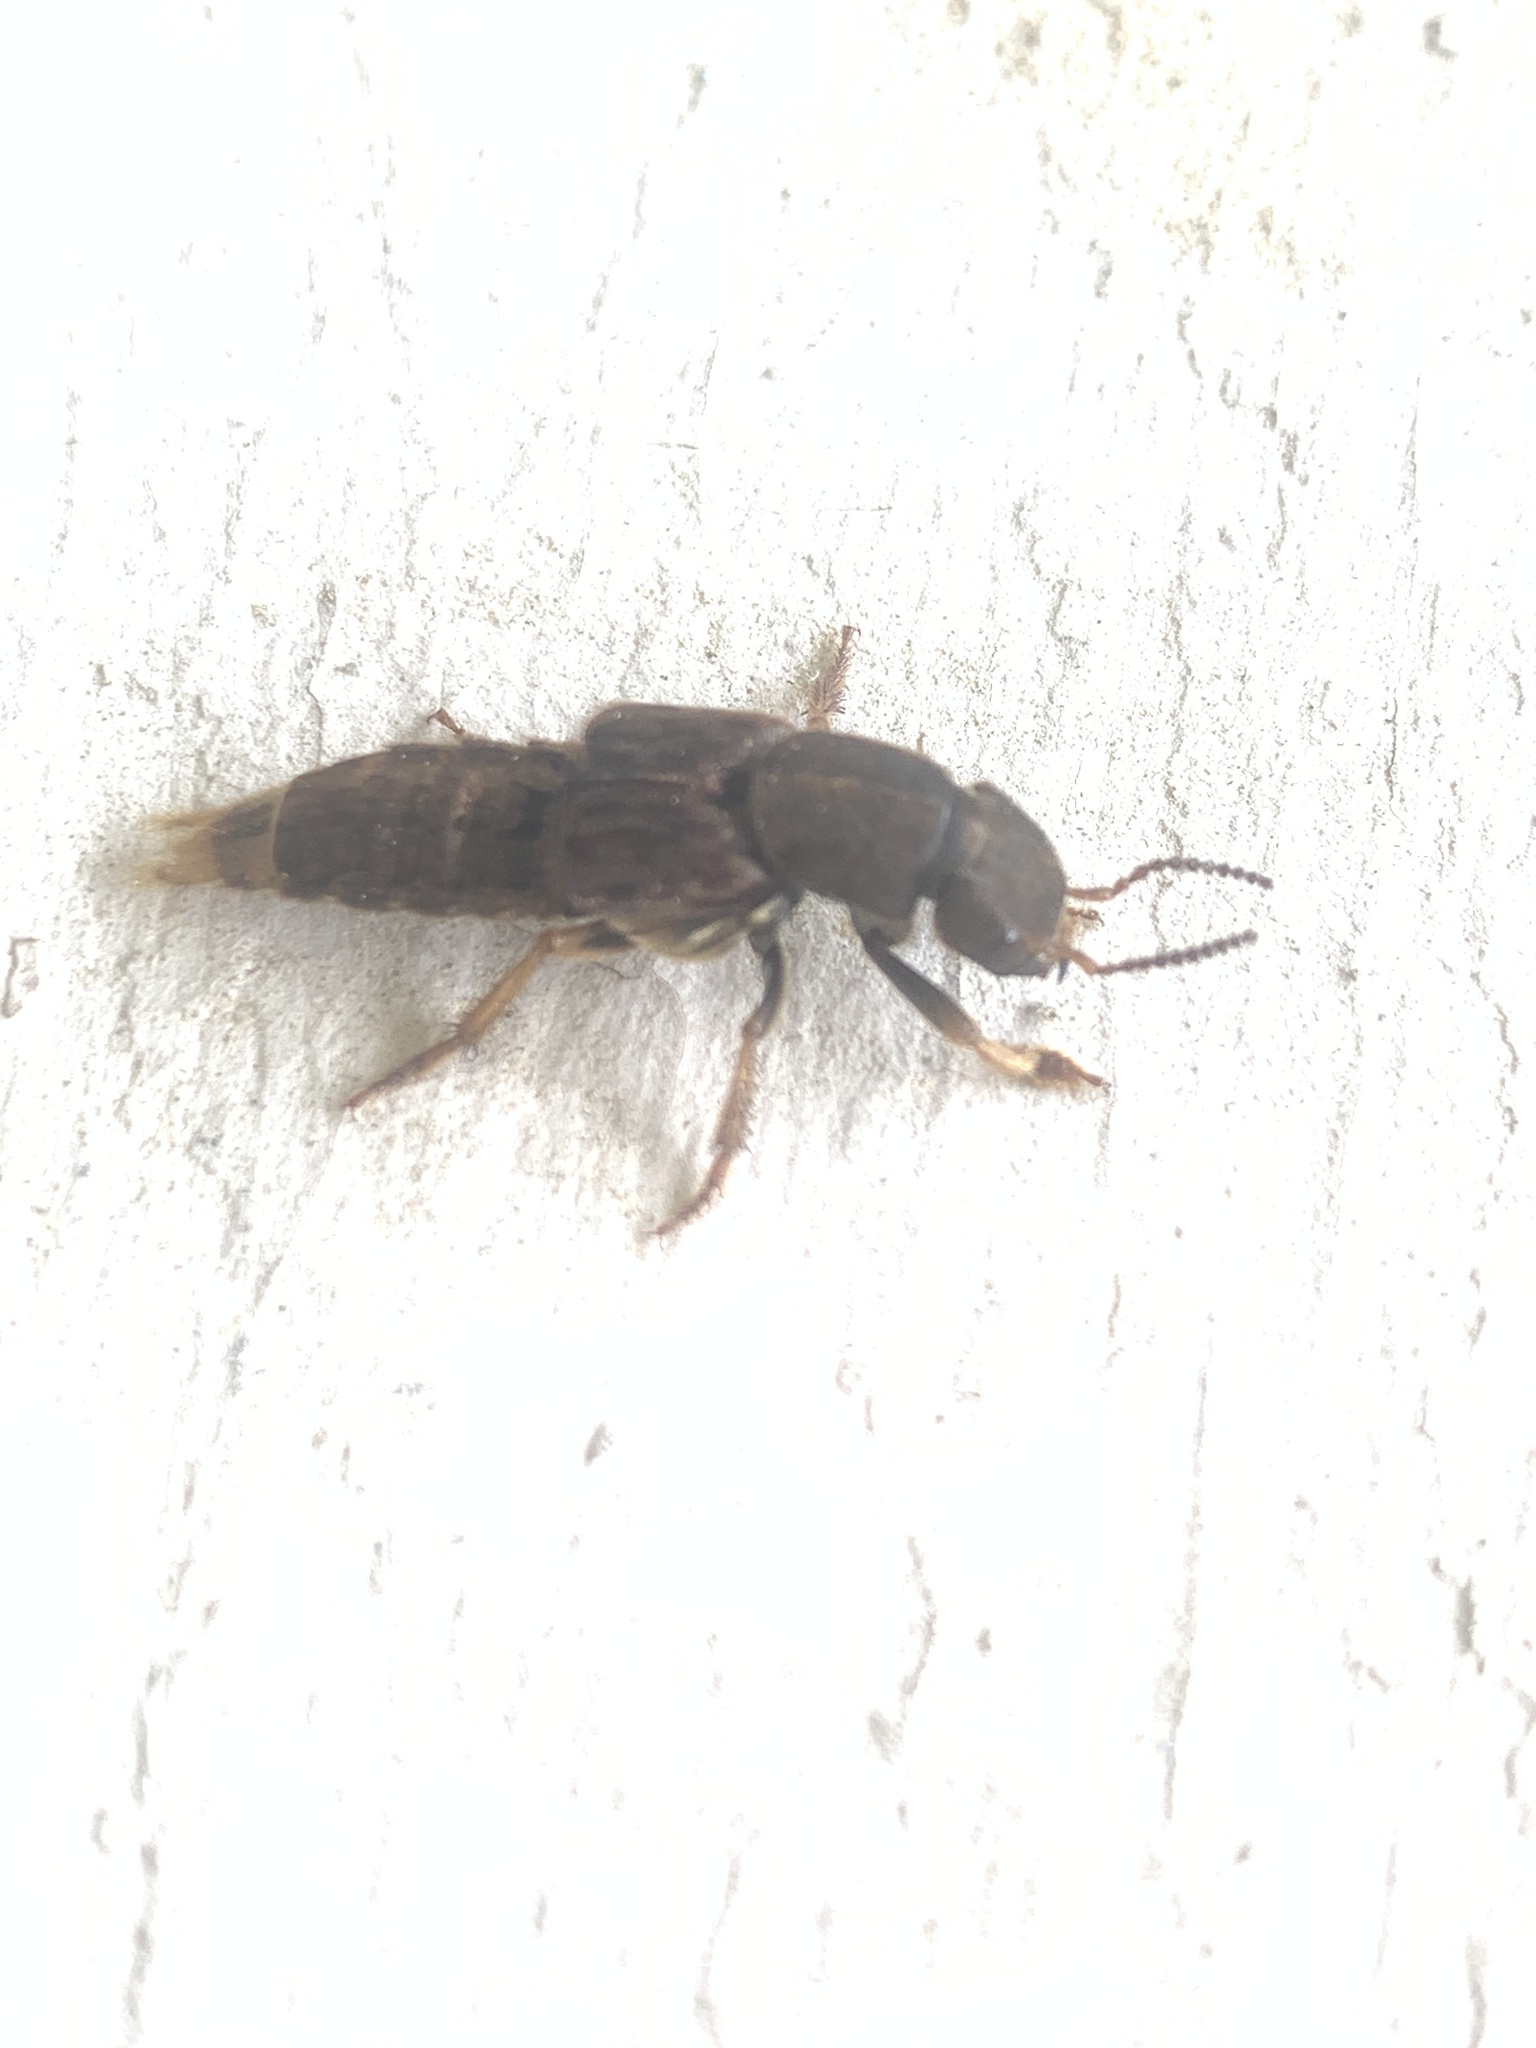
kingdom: Animalia
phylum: Arthropoda
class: Insecta
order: Coleoptera
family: Staphylinidae
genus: Platydracus
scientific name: Platydracus maculosus
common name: Brown rove beetle
